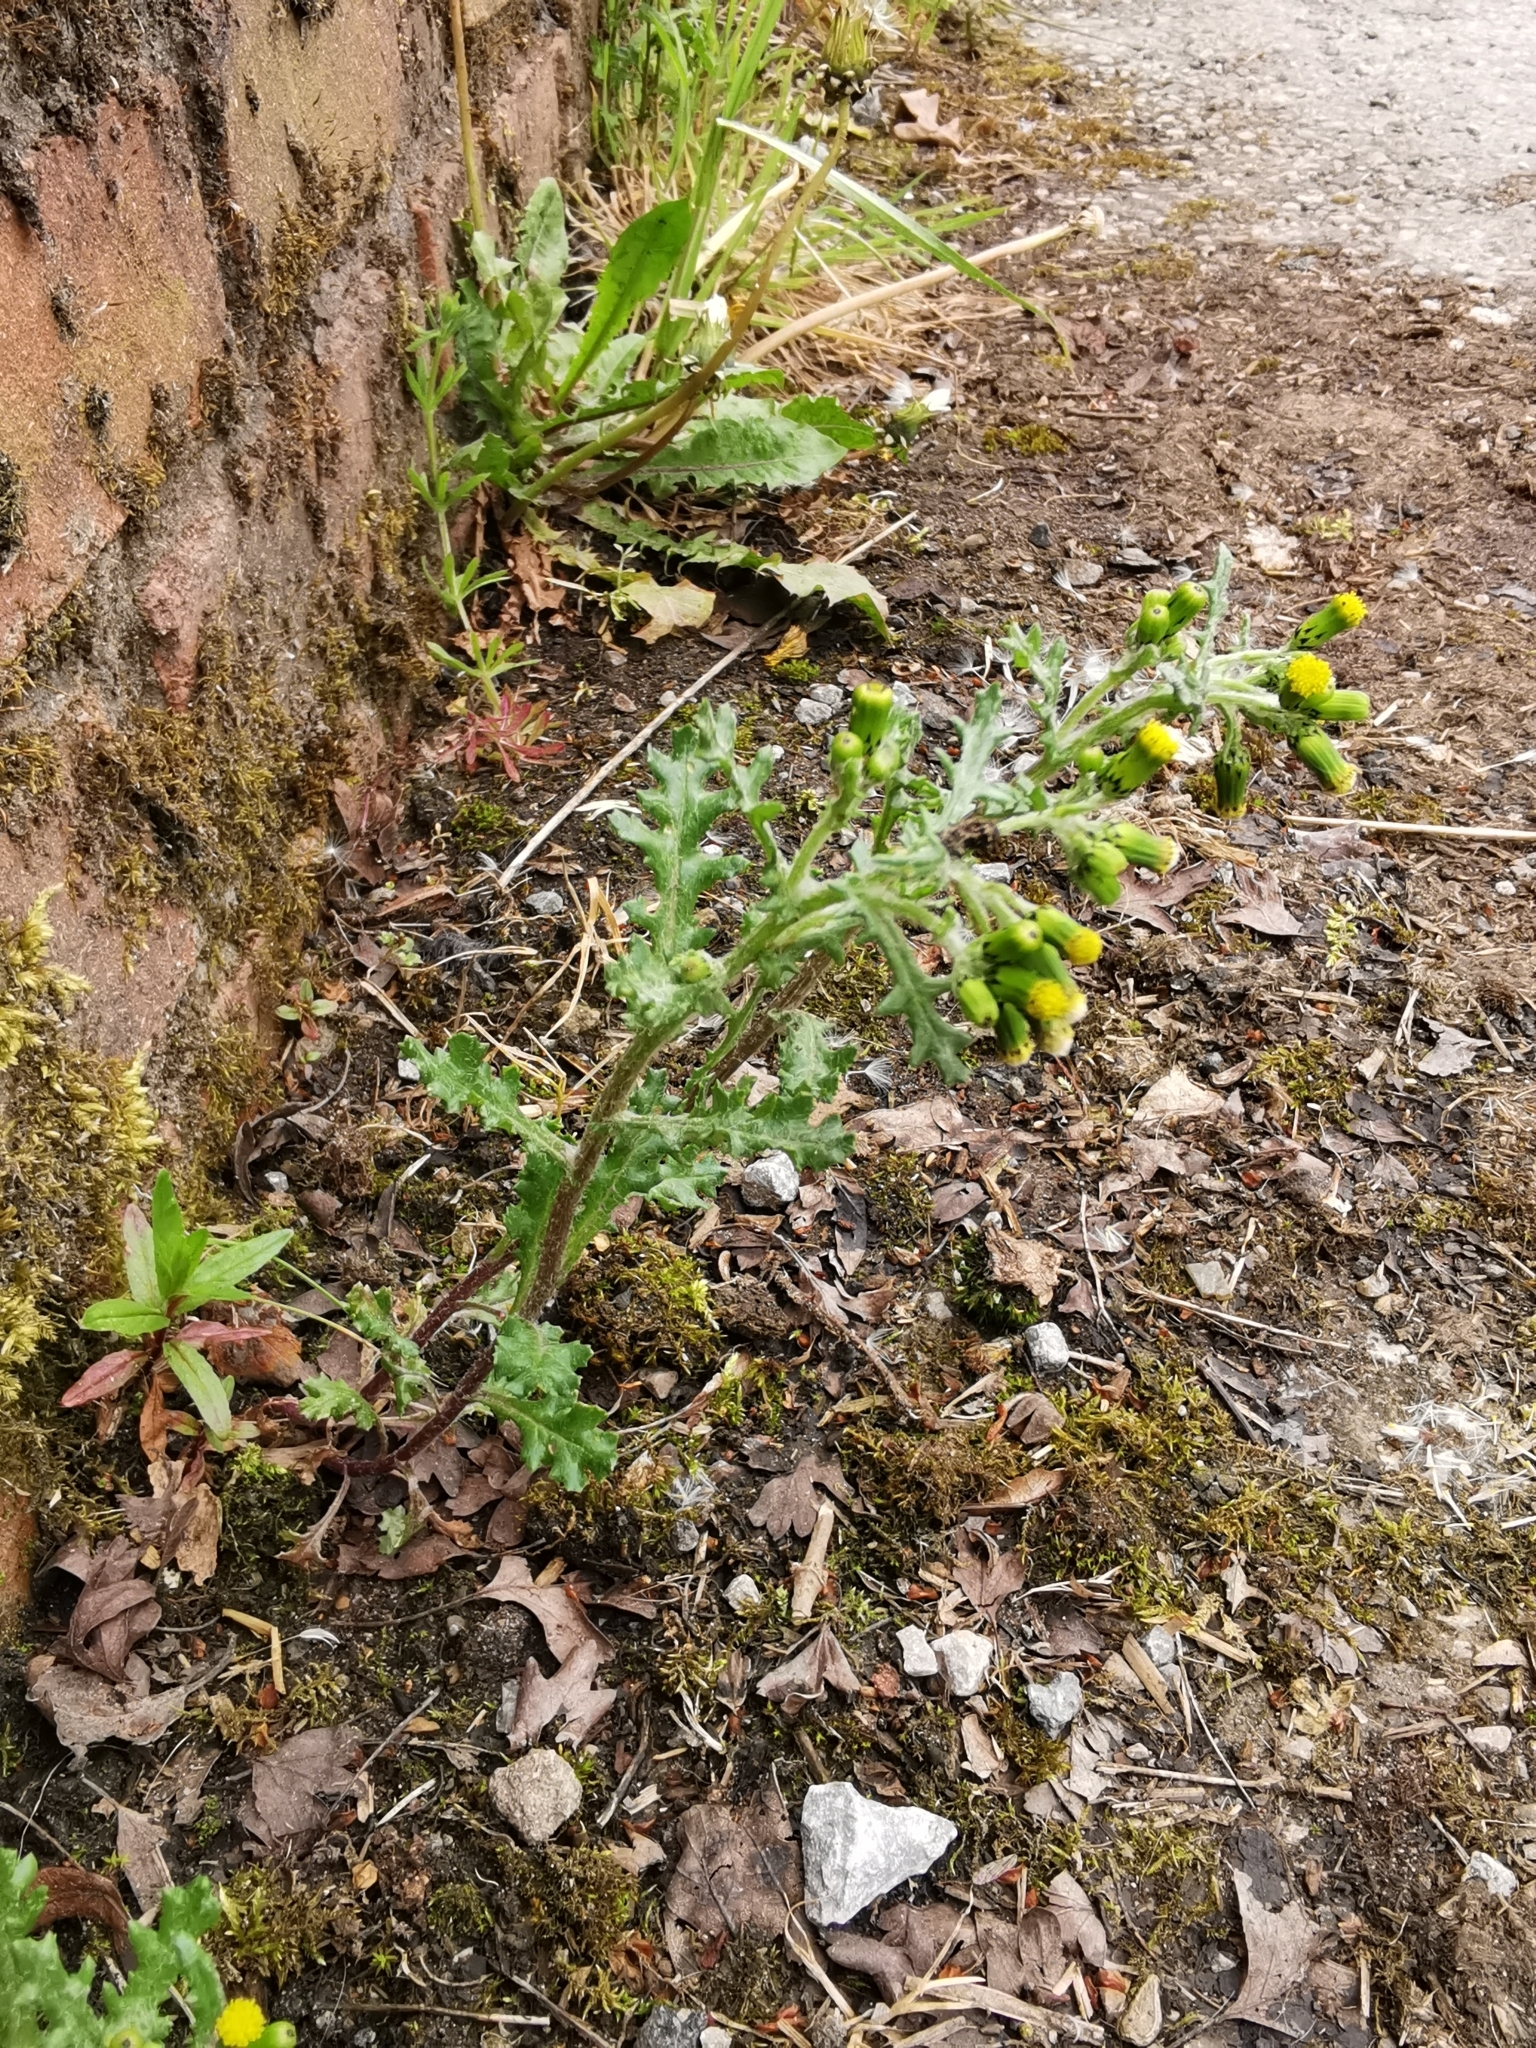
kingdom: Plantae
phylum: Tracheophyta
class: Magnoliopsida
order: Asterales
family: Asteraceae
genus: Senecio
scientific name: Senecio vulgaris
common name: Old-man-in-the-spring
